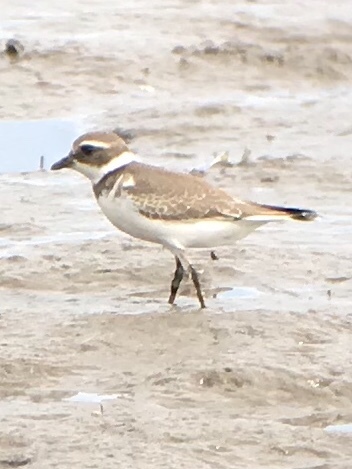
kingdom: Animalia
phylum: Chordata
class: Aves
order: Charadriiformes
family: Charadriidae
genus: Charadrius
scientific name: Charadrius semipalmatus
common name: Semipalmated plover
